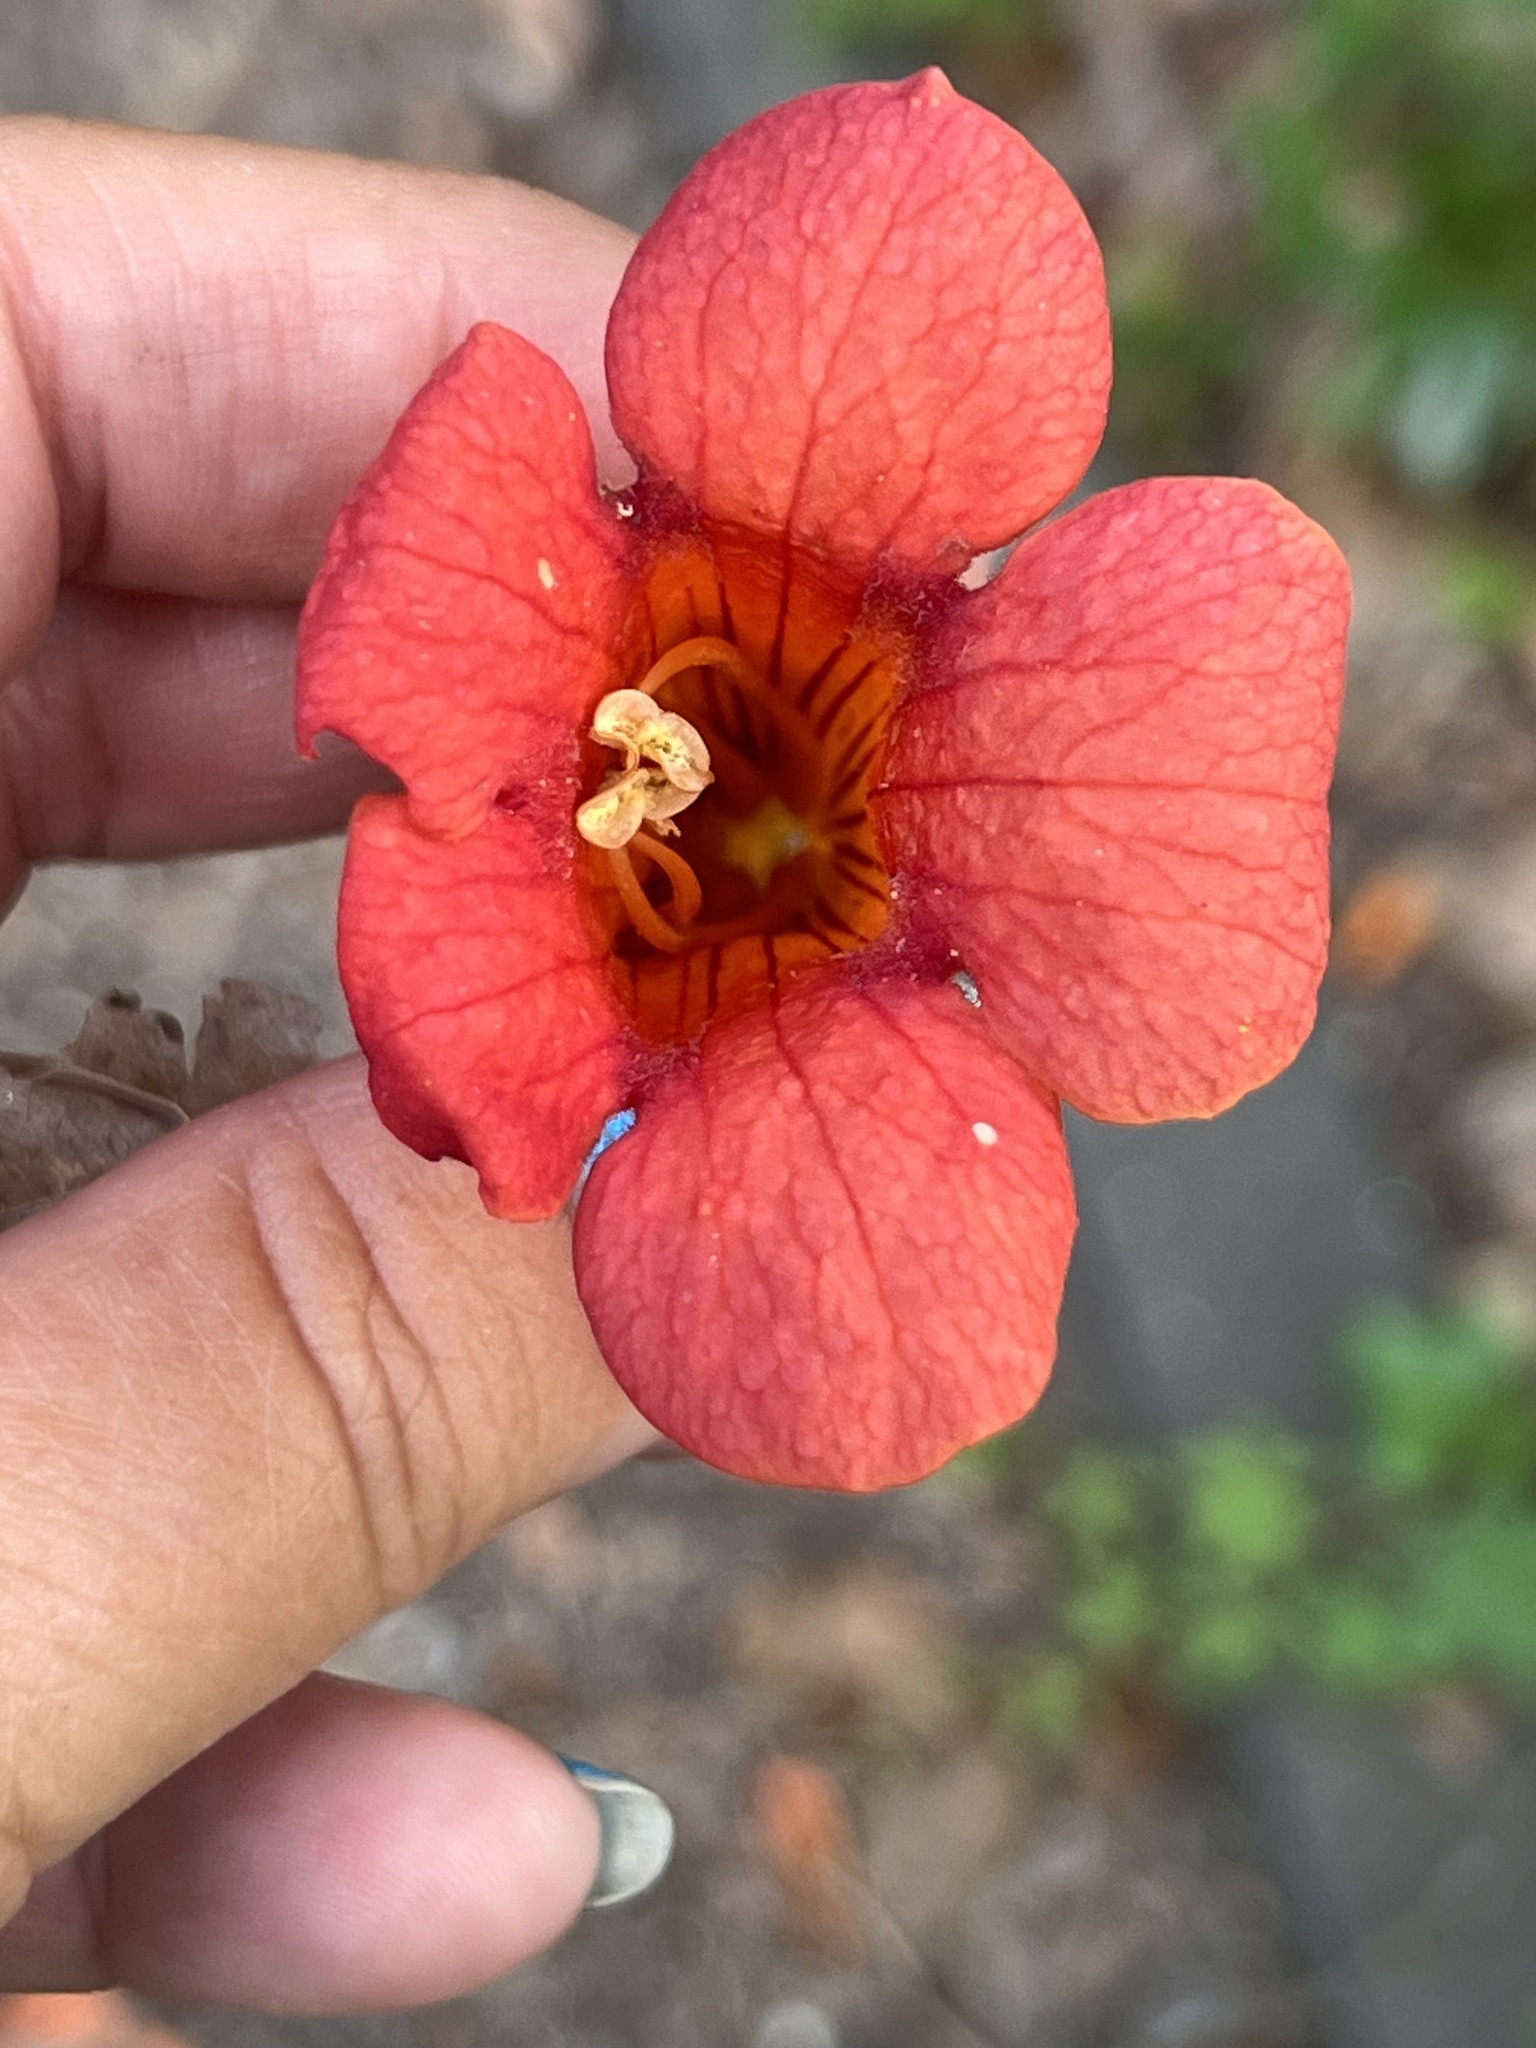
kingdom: Plantae
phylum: Tracheophyta
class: Magnoliopsida
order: Lamiales
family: Bignoniaceae
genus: Campsis
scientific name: Campsis radicans
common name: Trumpet-creeper
